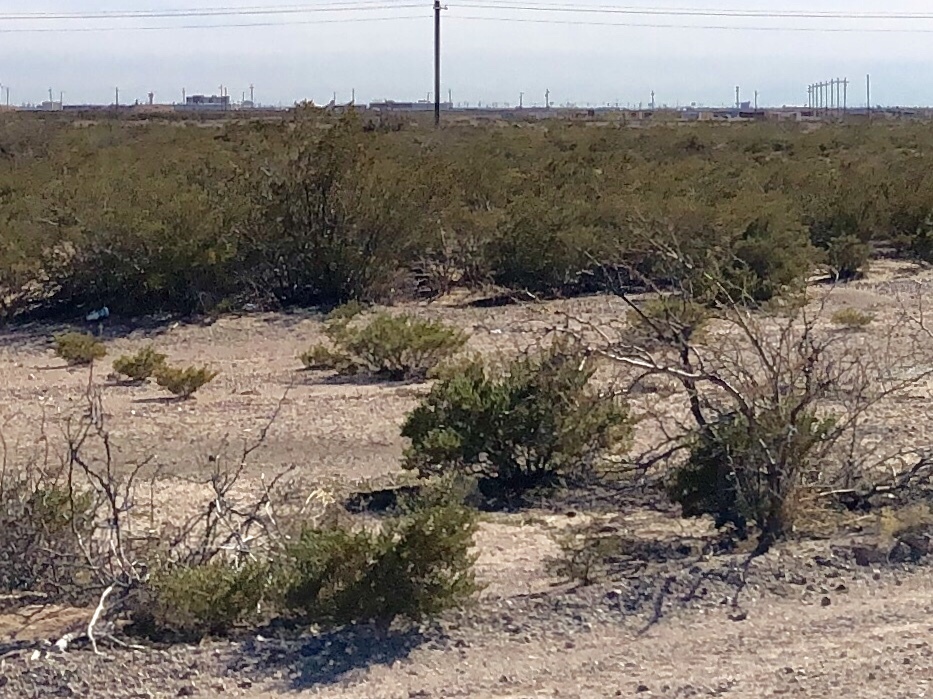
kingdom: Plantae
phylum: Tracheophyta
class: Magnoliopsida
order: Zygophyllales
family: Zygophyllaceae
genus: Larrea
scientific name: Larrea tridentata
